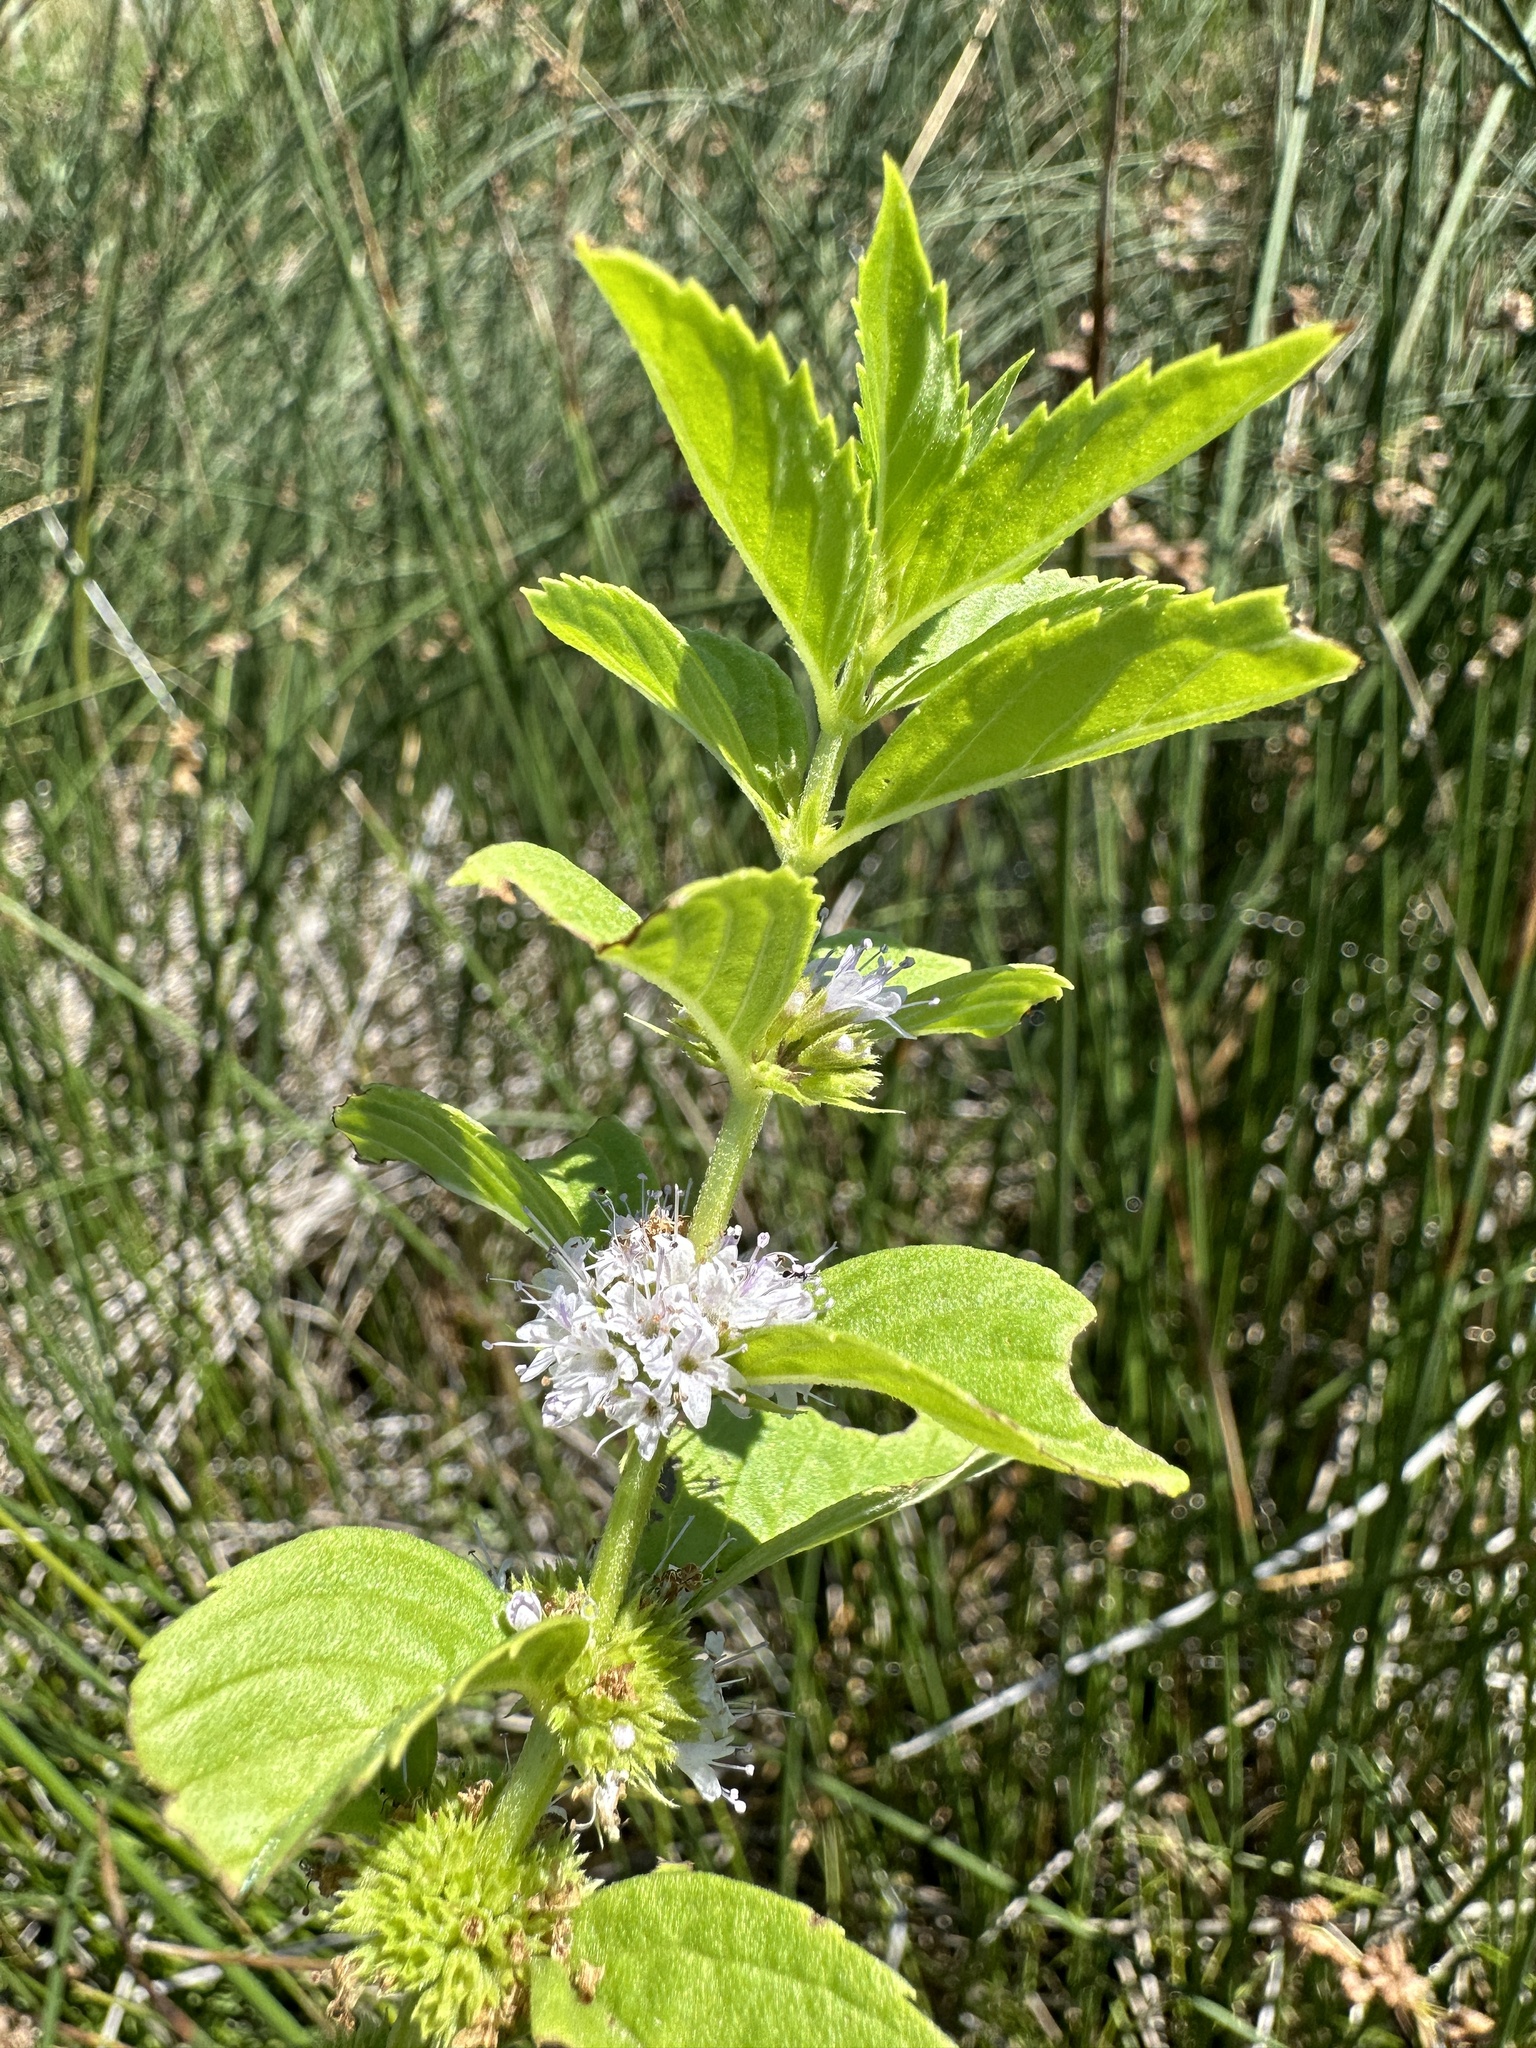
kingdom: Plantae
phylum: Tracheophyta
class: Magnoliopsida
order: Lamiales
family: Lamiaceae
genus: Mentha
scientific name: Mentha canadensis
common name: American corn mint
